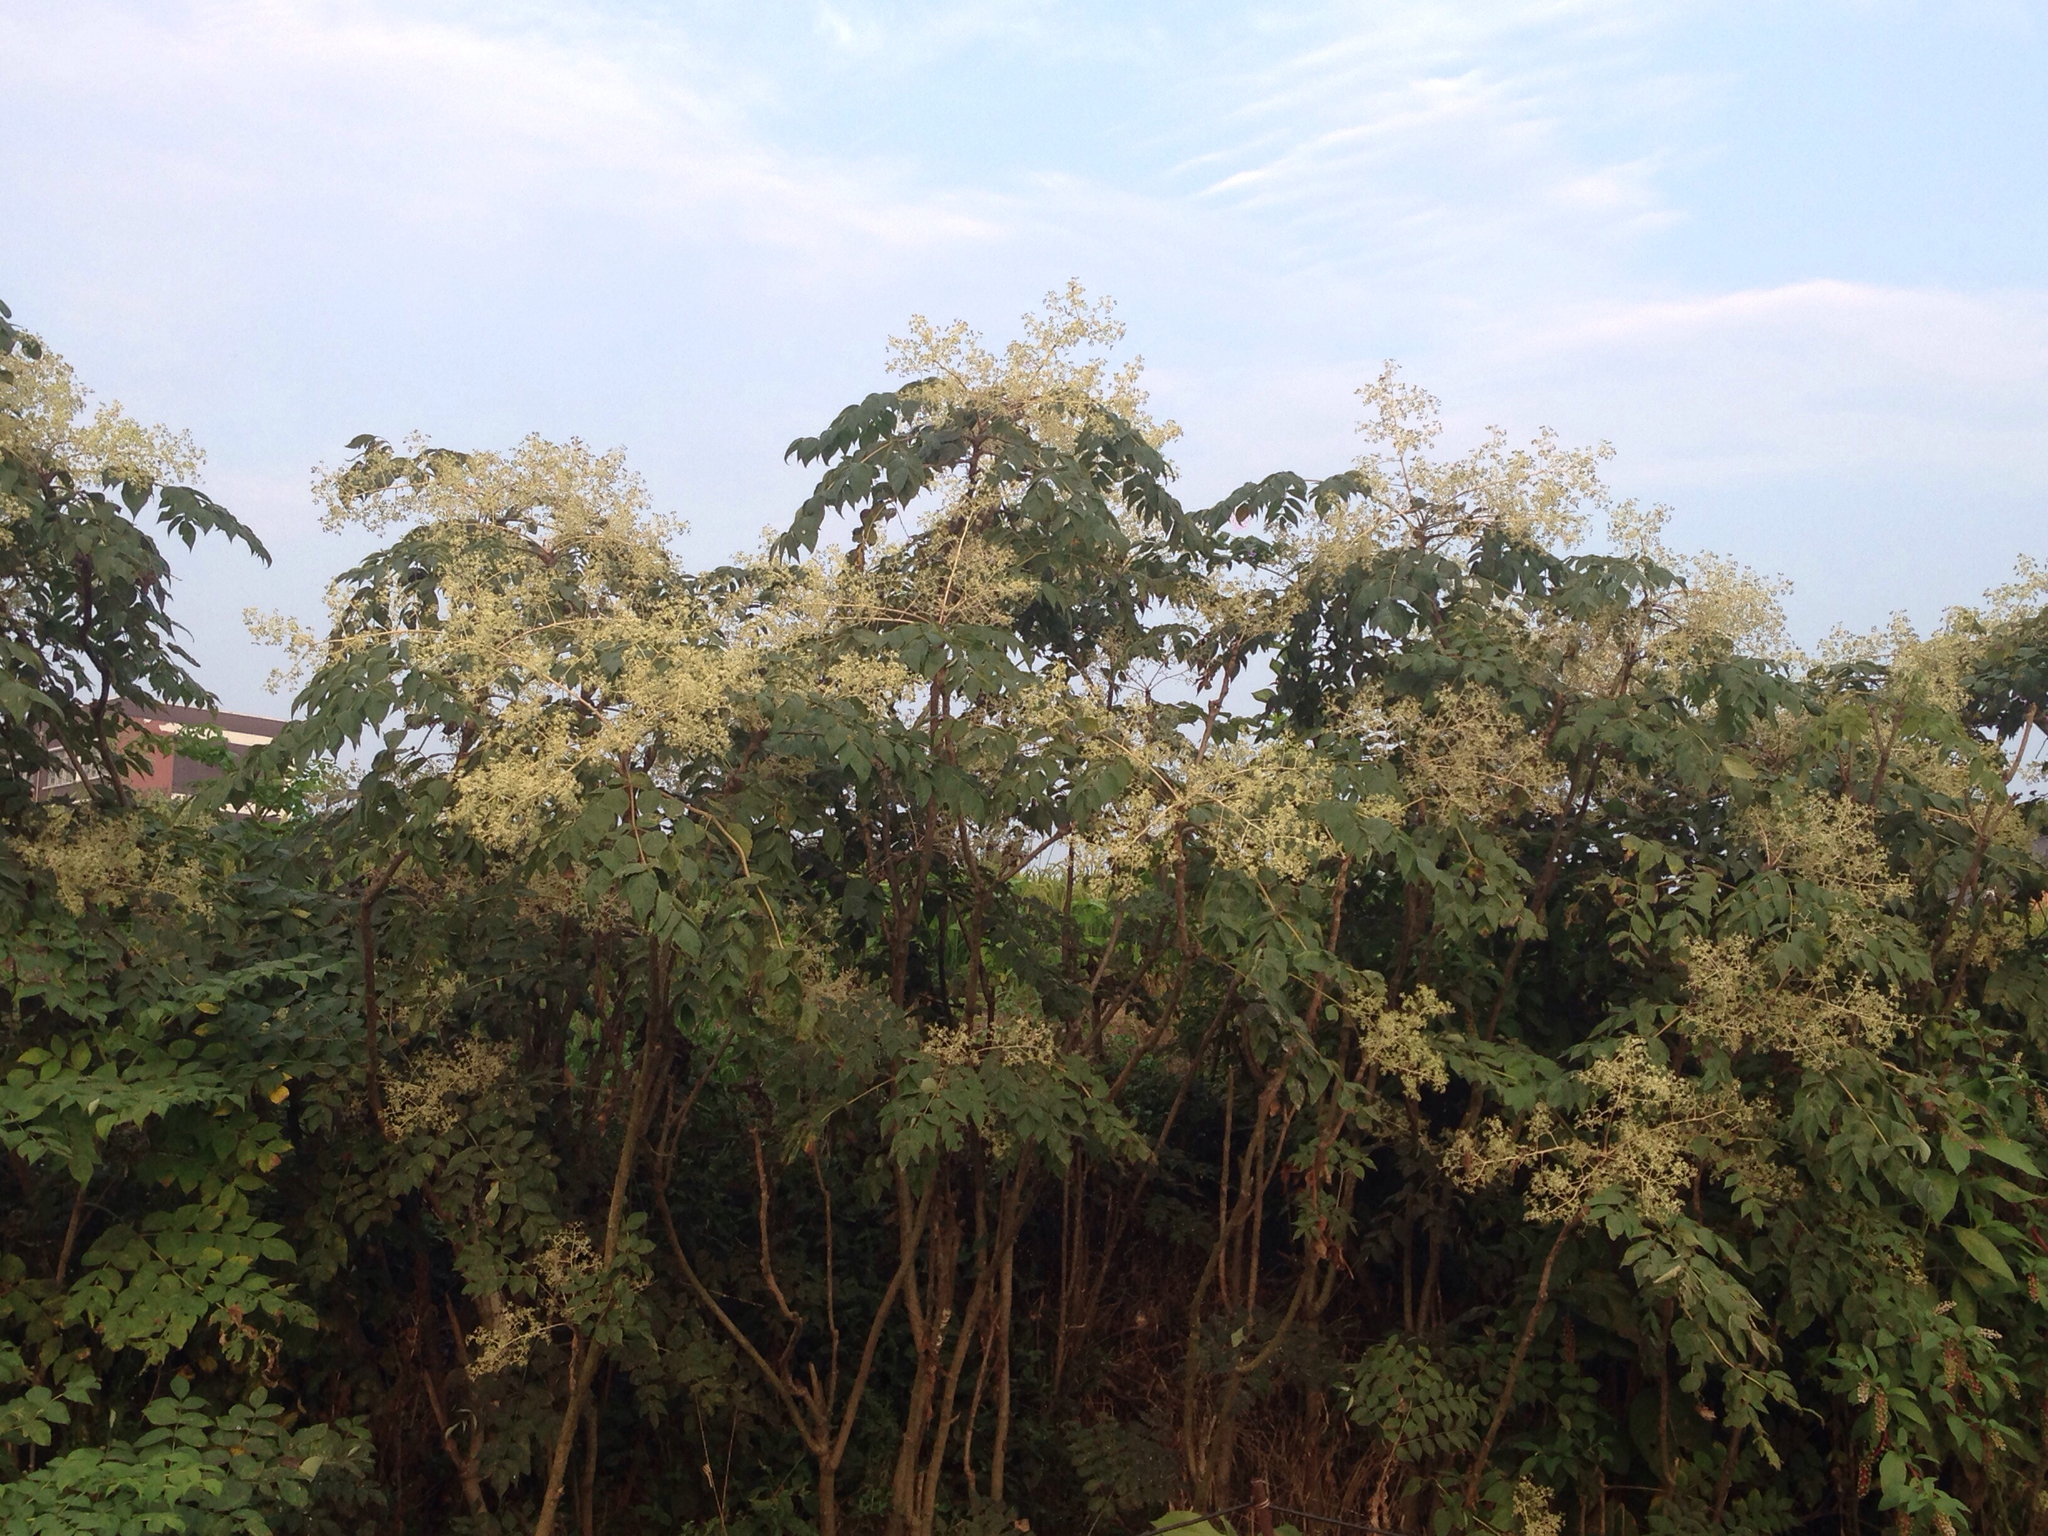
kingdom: Plantae
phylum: Tracheophyta
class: Magnoliopsida
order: Apiales
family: Araliaceae
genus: Aralia
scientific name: Aralia elata
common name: Japanese angelica-tree
